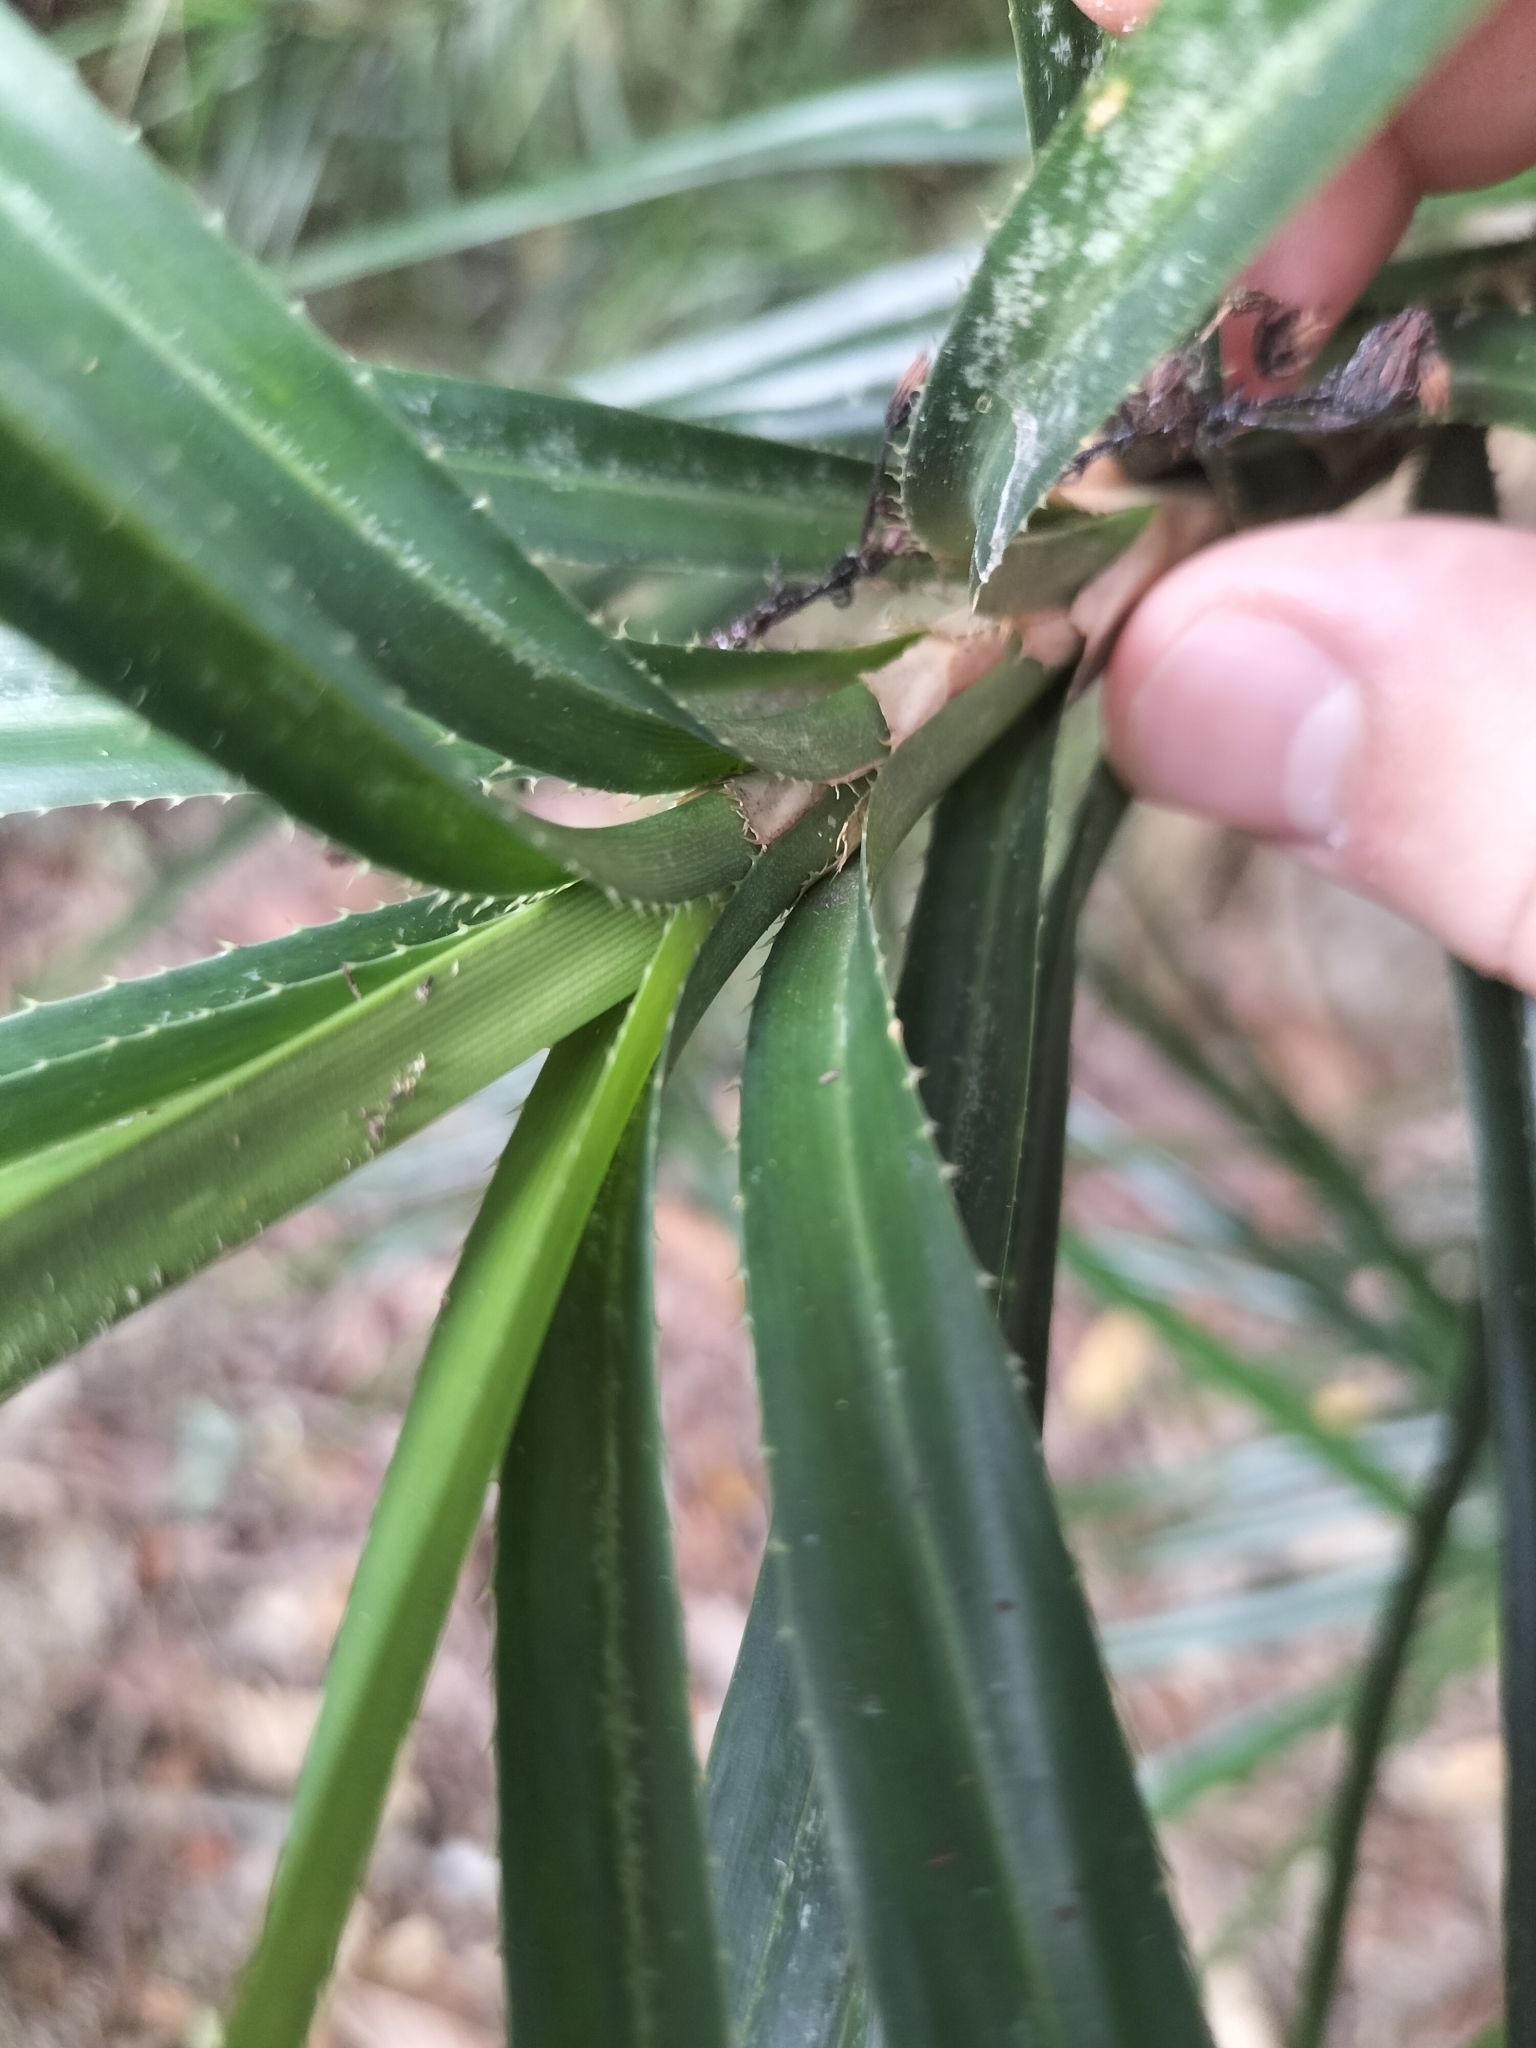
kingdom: Plantae
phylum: Tracheophyta
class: Liliopsida
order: Pandanales
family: Pandanaceae
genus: Freycinetia
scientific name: Freycinetia excelsa
